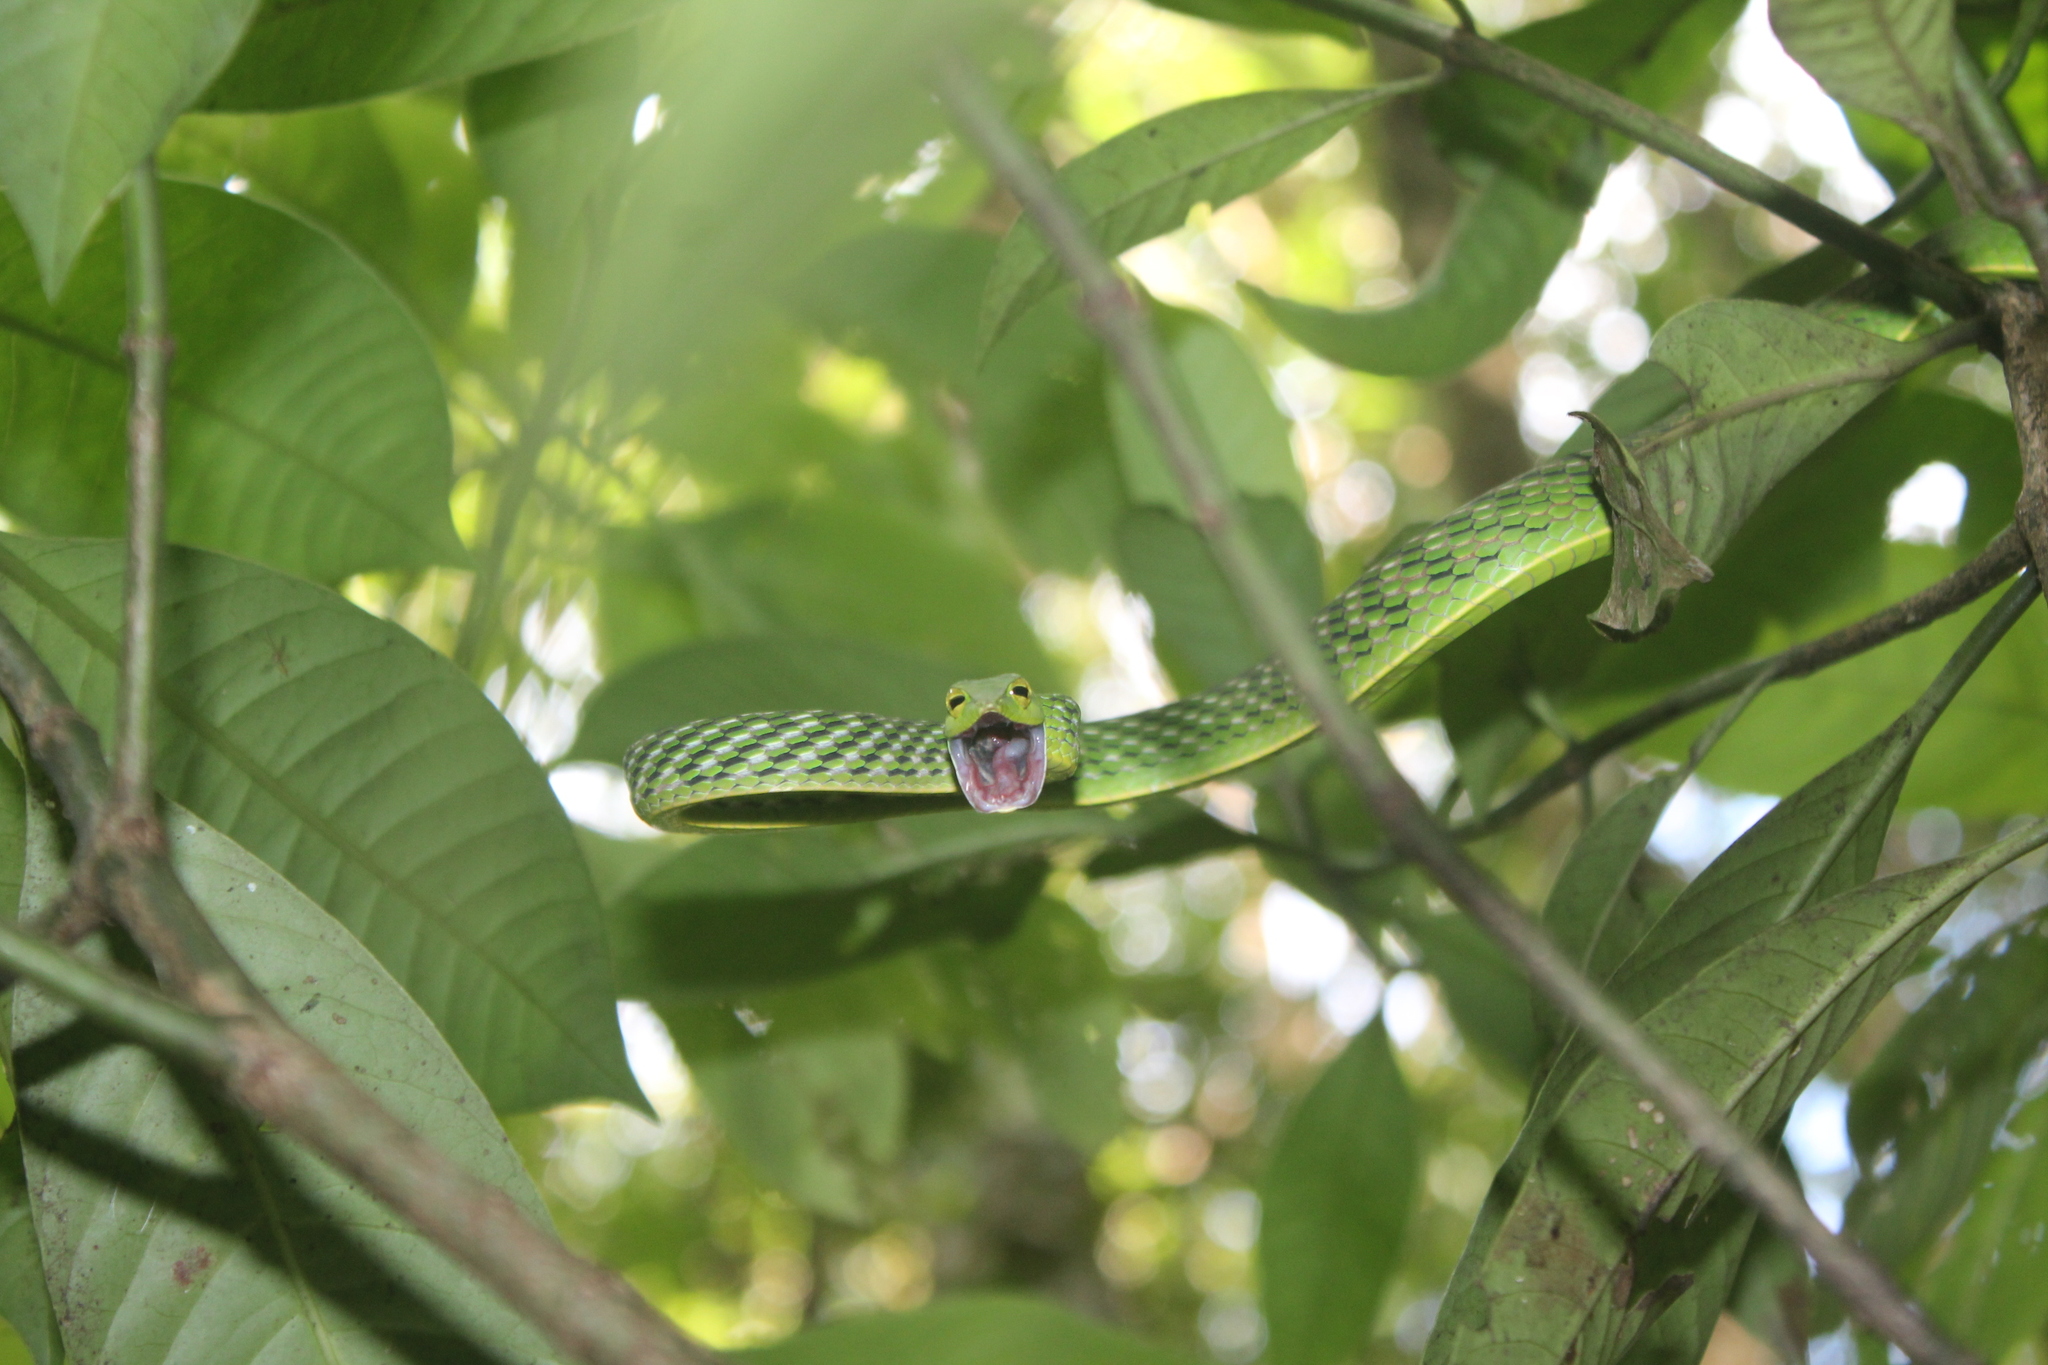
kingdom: Animalia
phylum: Chordata
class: Squamata
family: Colubridae
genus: Ahaetulla
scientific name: Ahaetulla farnsworthi
